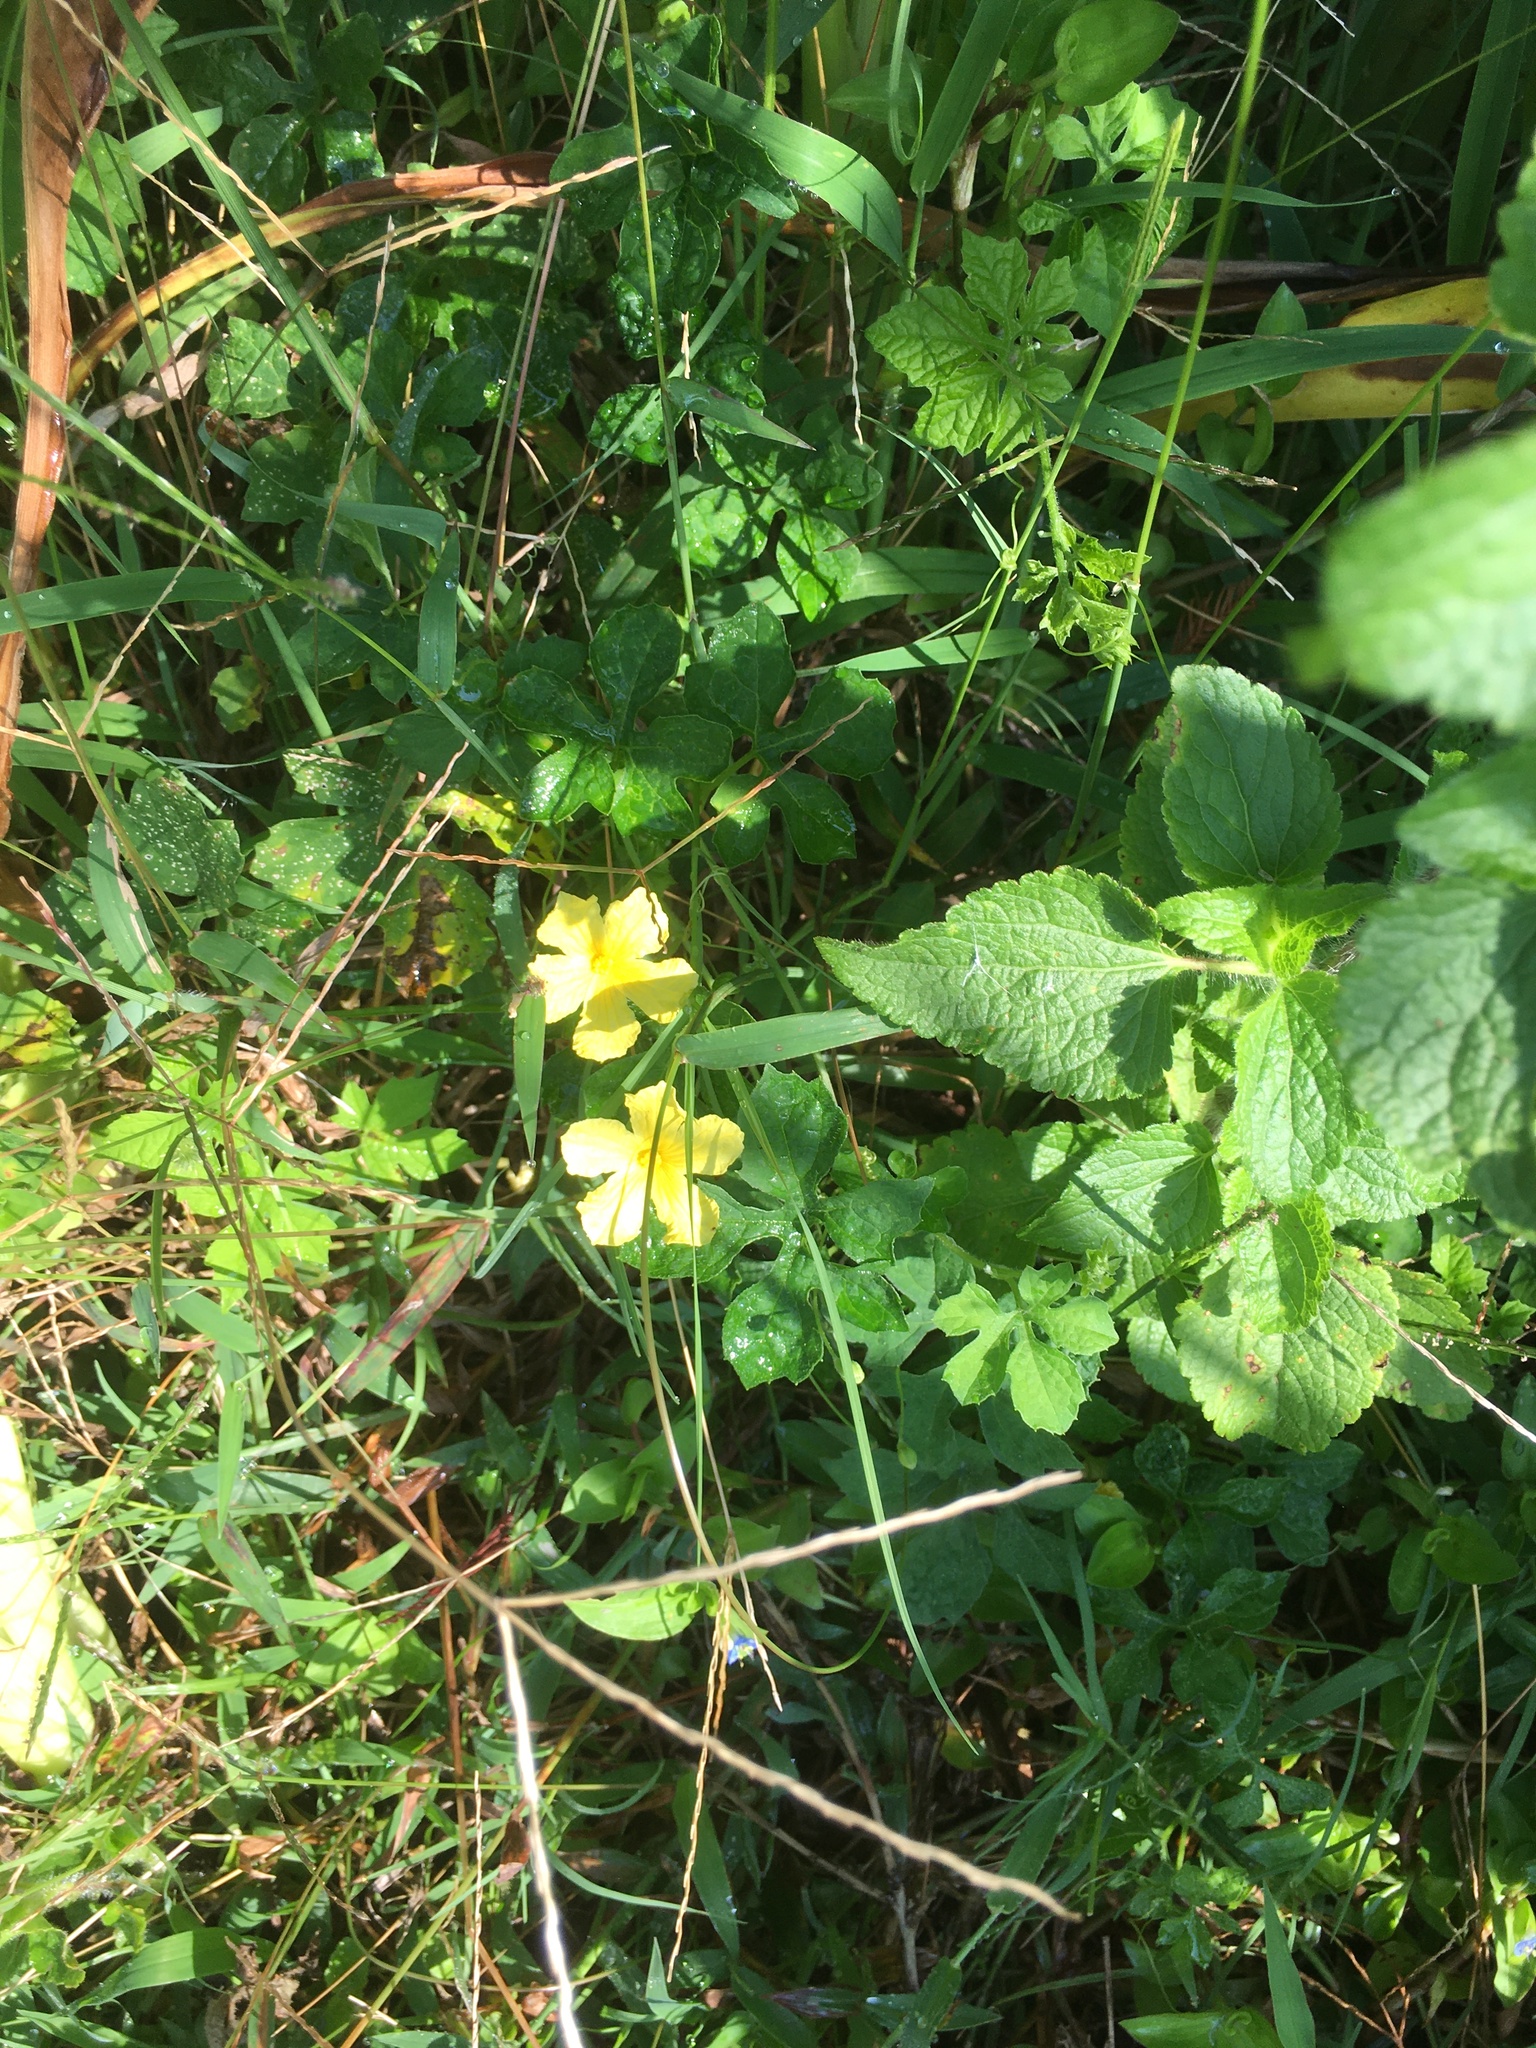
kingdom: Plantae
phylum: Tracheophyta
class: Magnoliopsida
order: Cucurbitales
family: Cucurbitaceae
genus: Momordica
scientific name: Momordica charantia
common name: Balsampear
